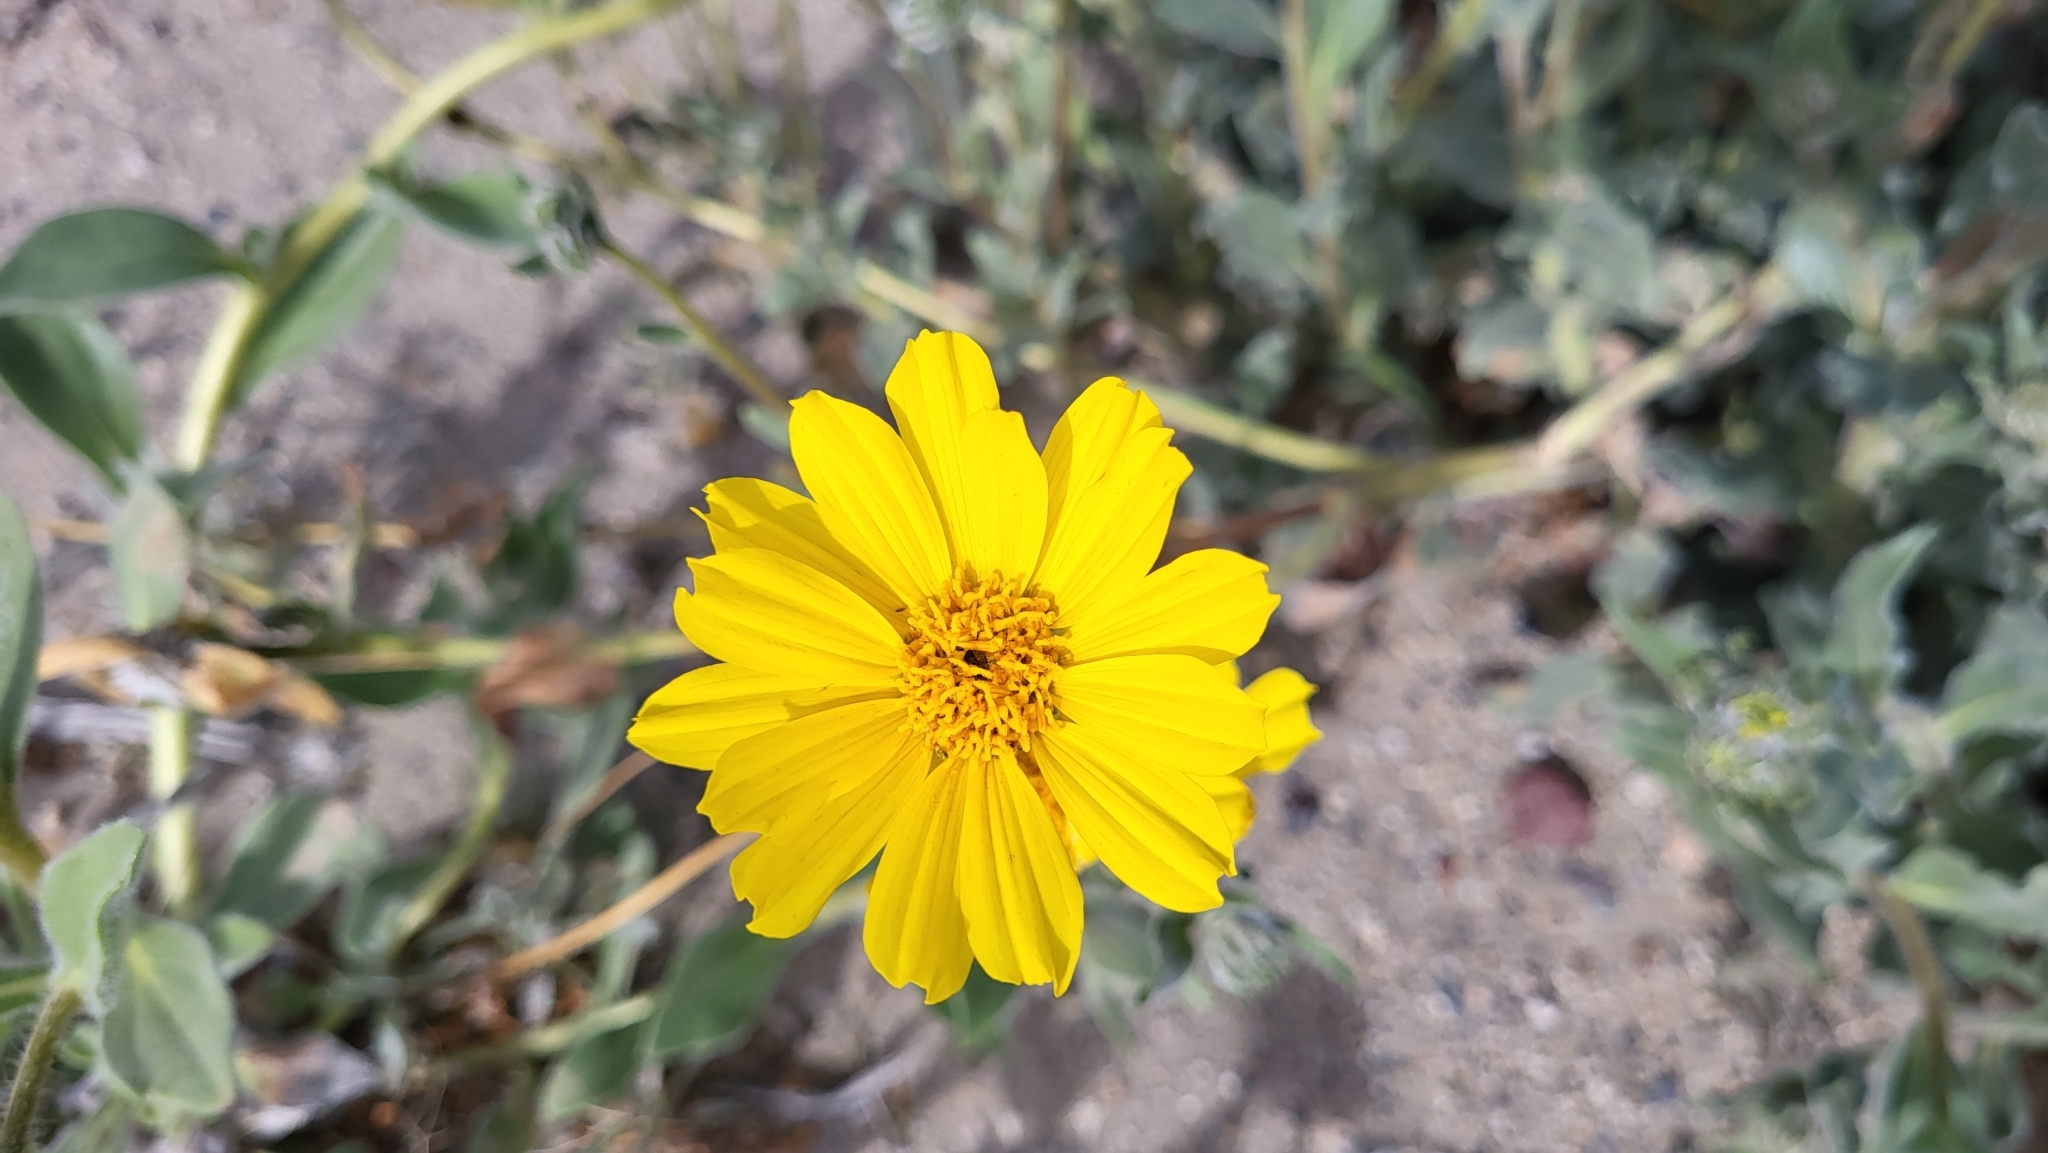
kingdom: Plantae
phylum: Tracheophyta
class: Magnoliopsida
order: Asterales
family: Asteraceae
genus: Geraea
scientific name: Geraea canescens
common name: Desert-gold
